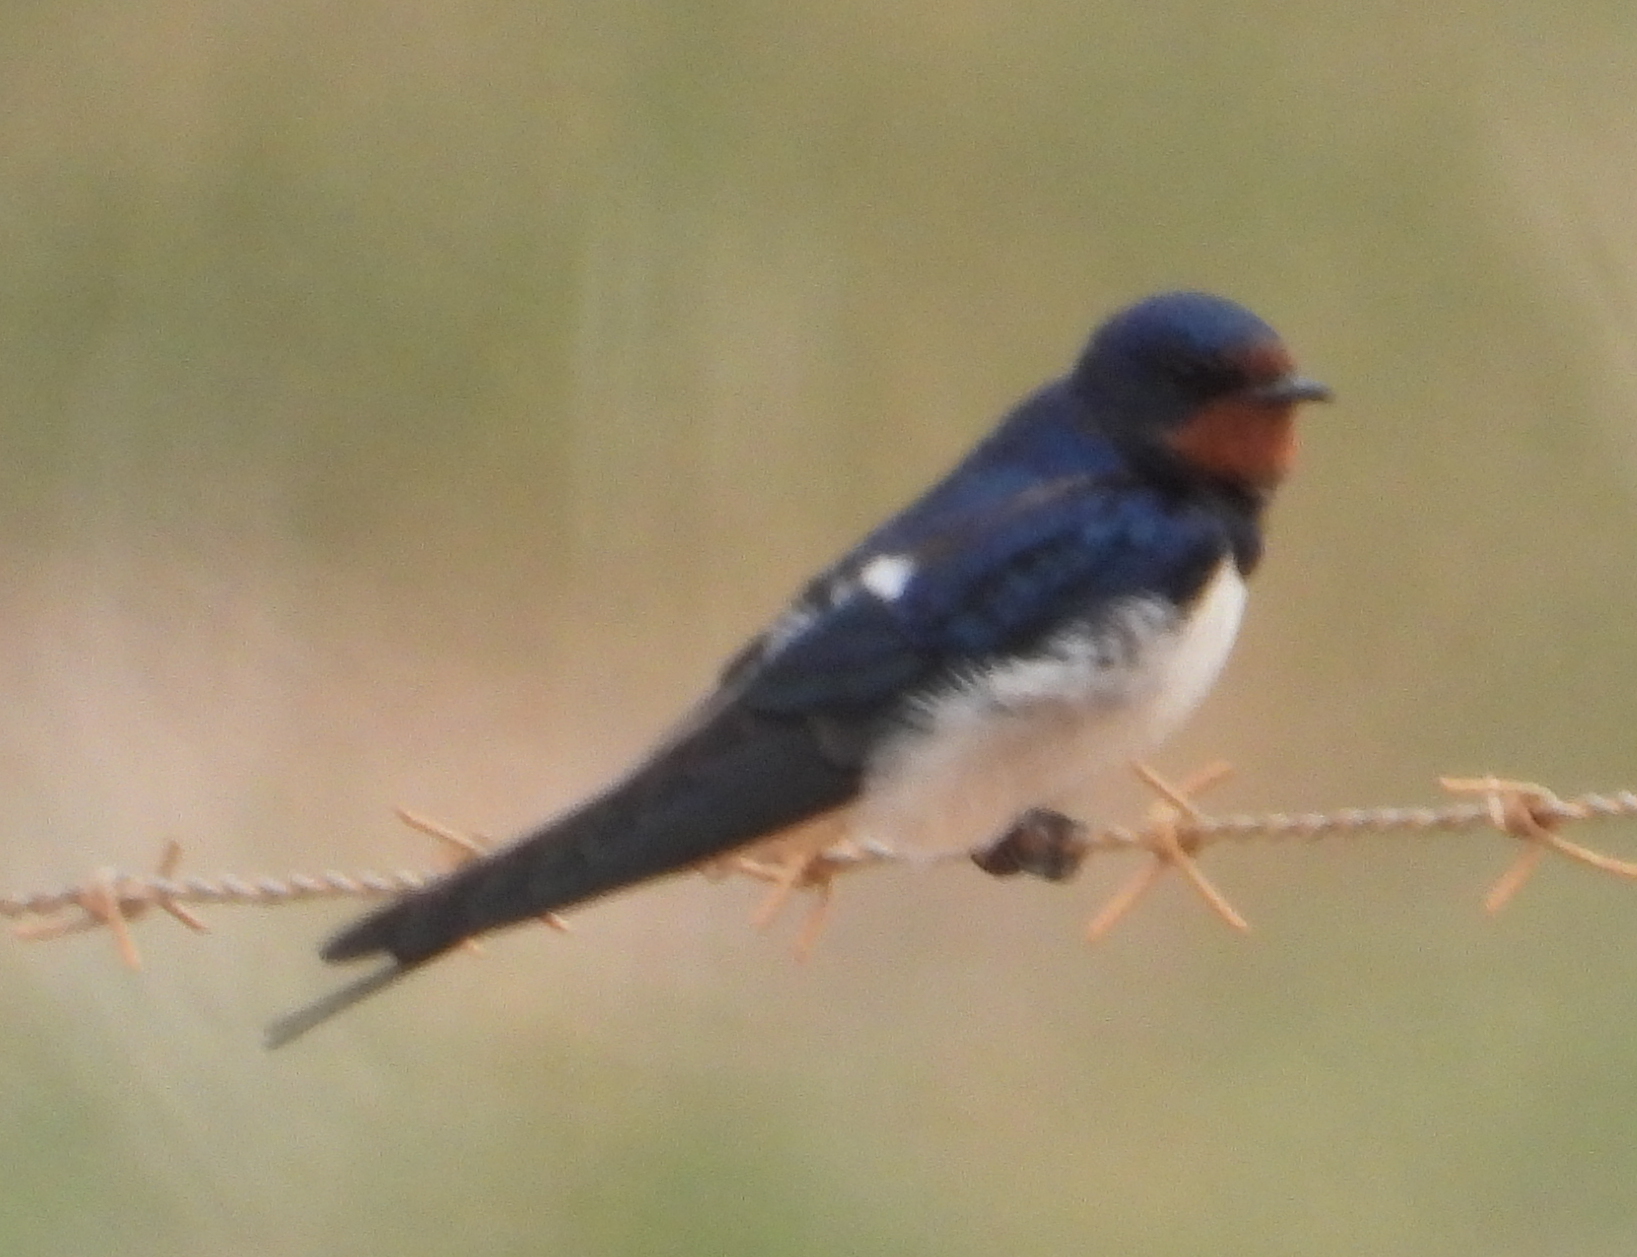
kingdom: Animalia
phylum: Chordata
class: Aves
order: Passeriformes
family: Hirundinidae
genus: Hirundo
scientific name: Hirundo rustica
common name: Barn swallow
